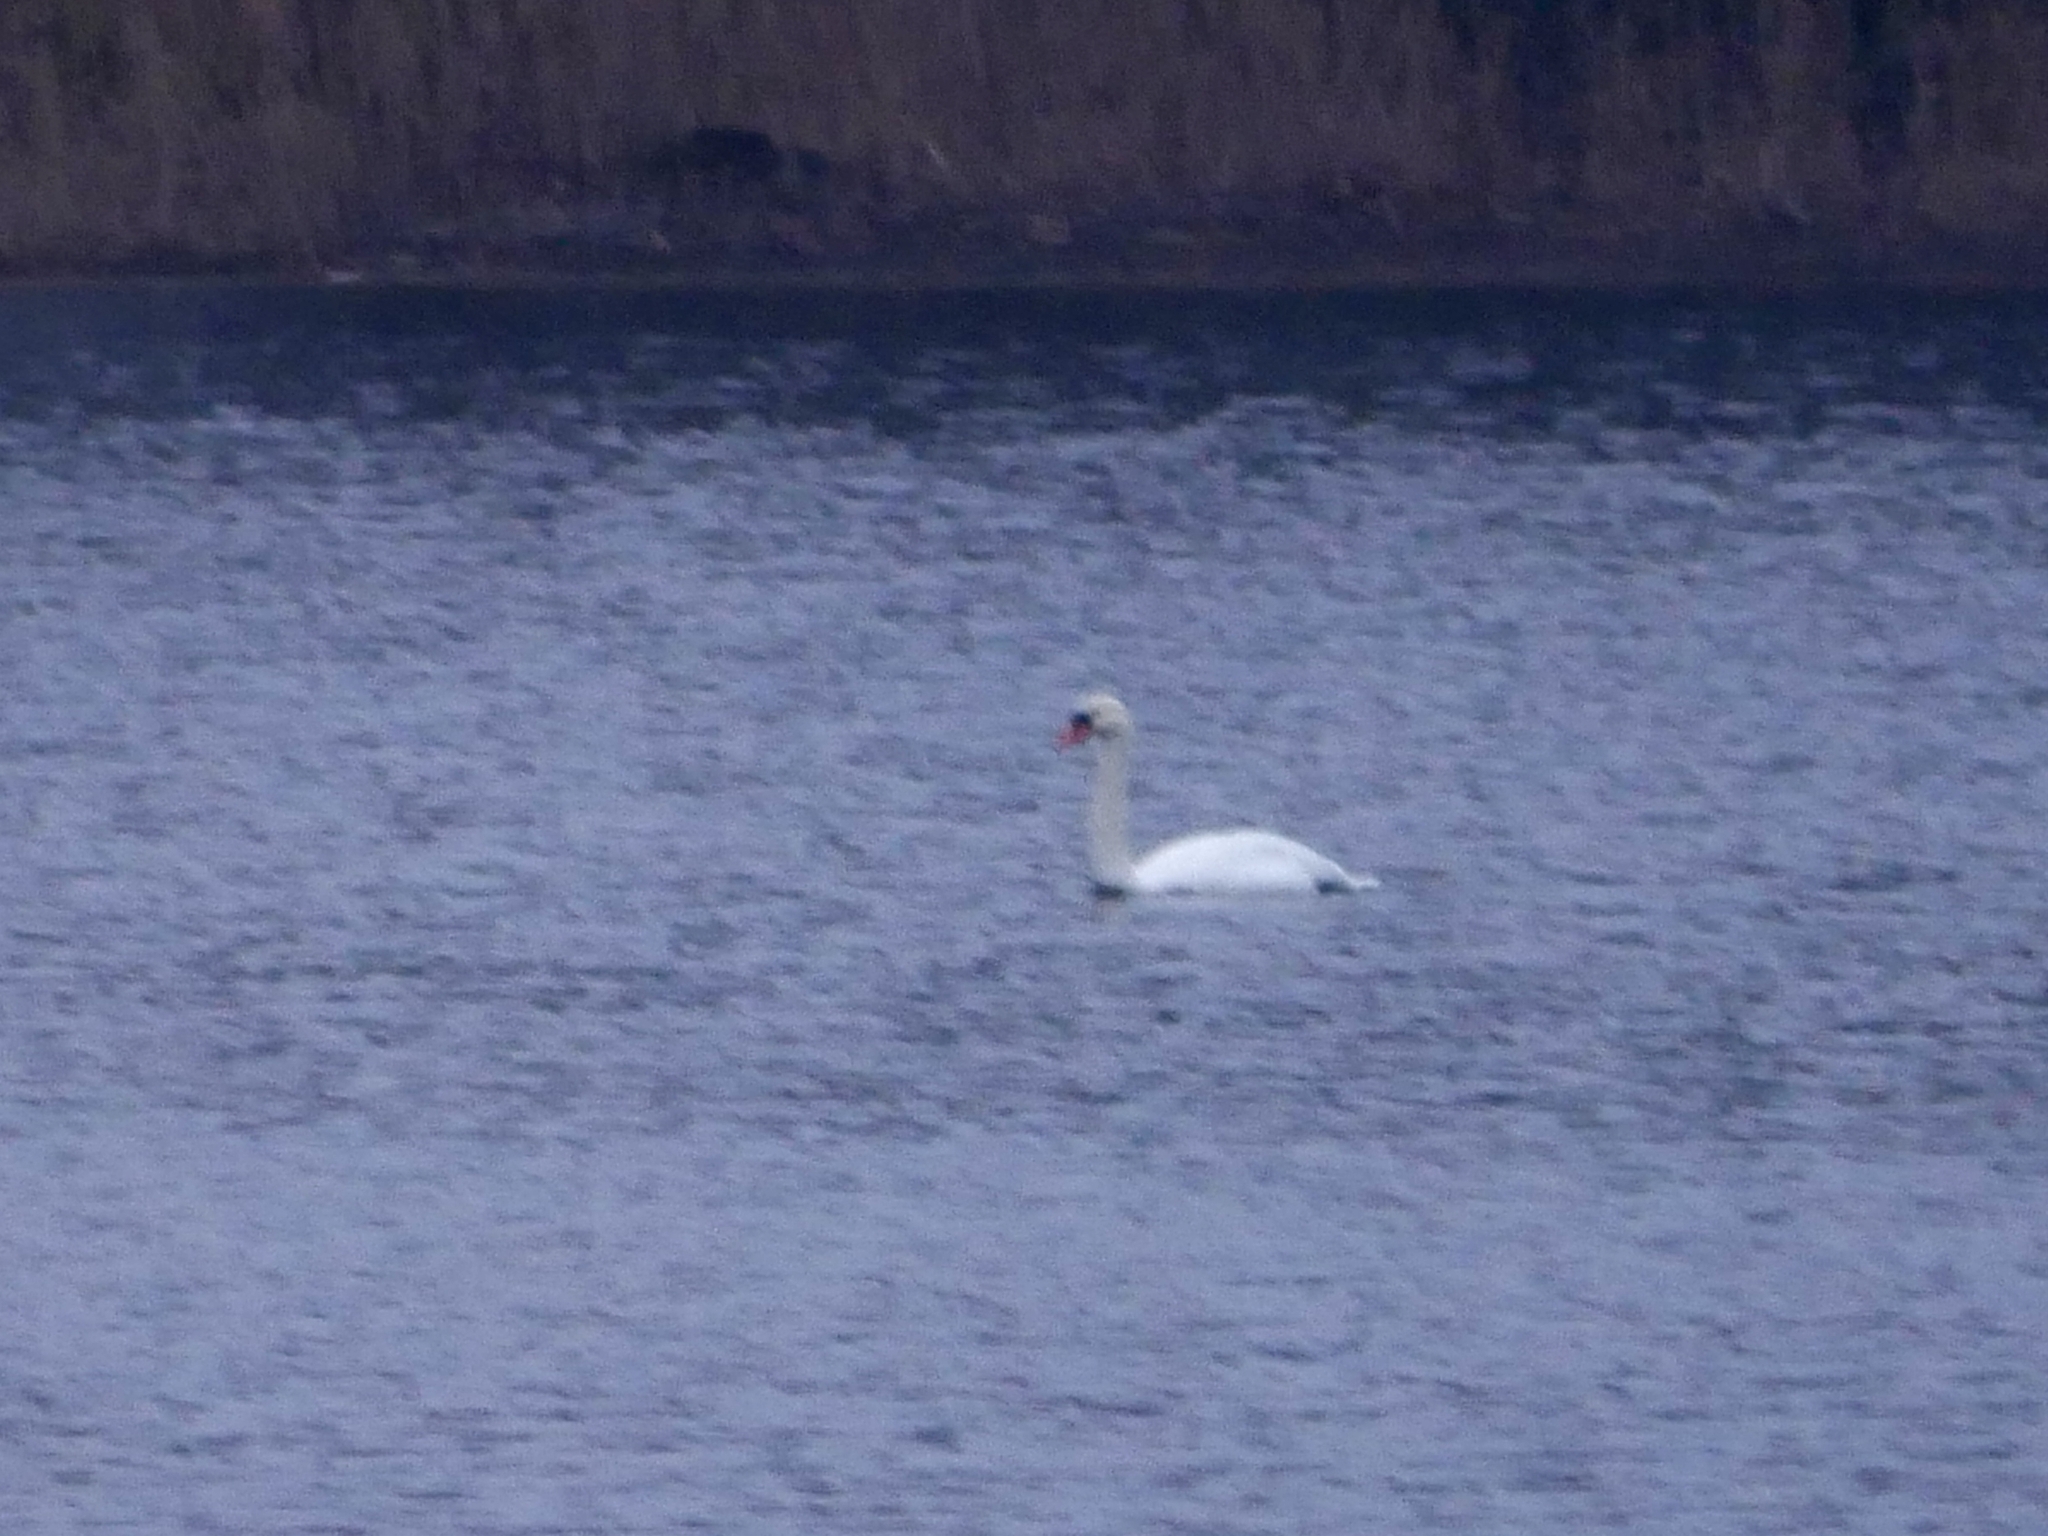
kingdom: Animalia
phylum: Chordata
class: Aves
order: Anseriformes
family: Anatidae
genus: Cygnus
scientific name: Cygnus olor
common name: Mute swan
